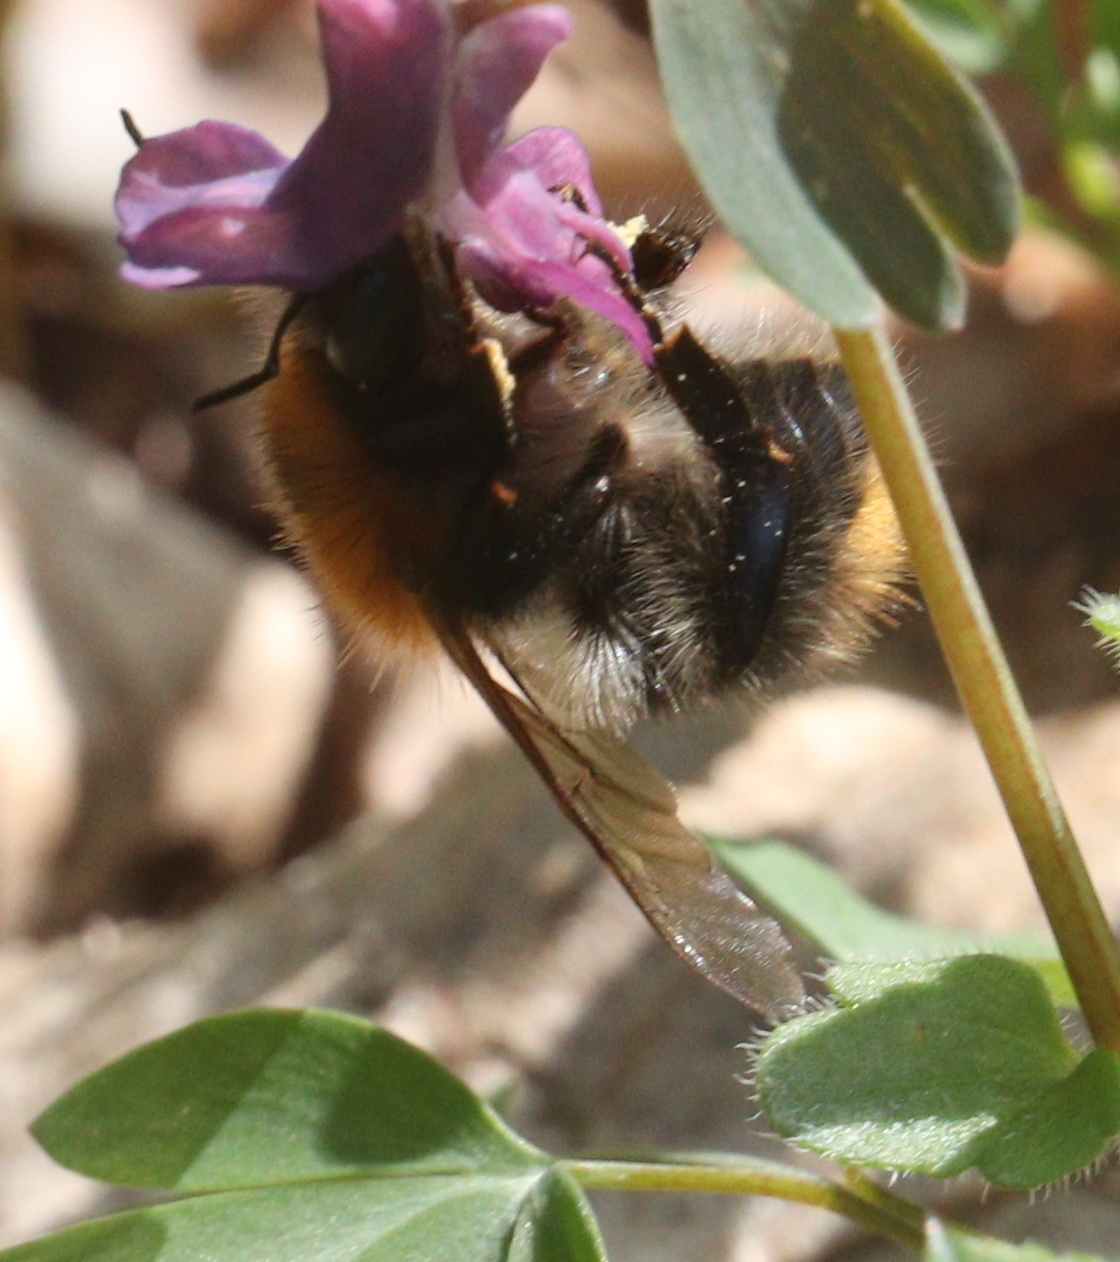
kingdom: Animalia
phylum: Arthropoda
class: Insecta
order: Hymenoptera
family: Apidae
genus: Bombus
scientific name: Bombus pascuorum
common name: Common carder bee
